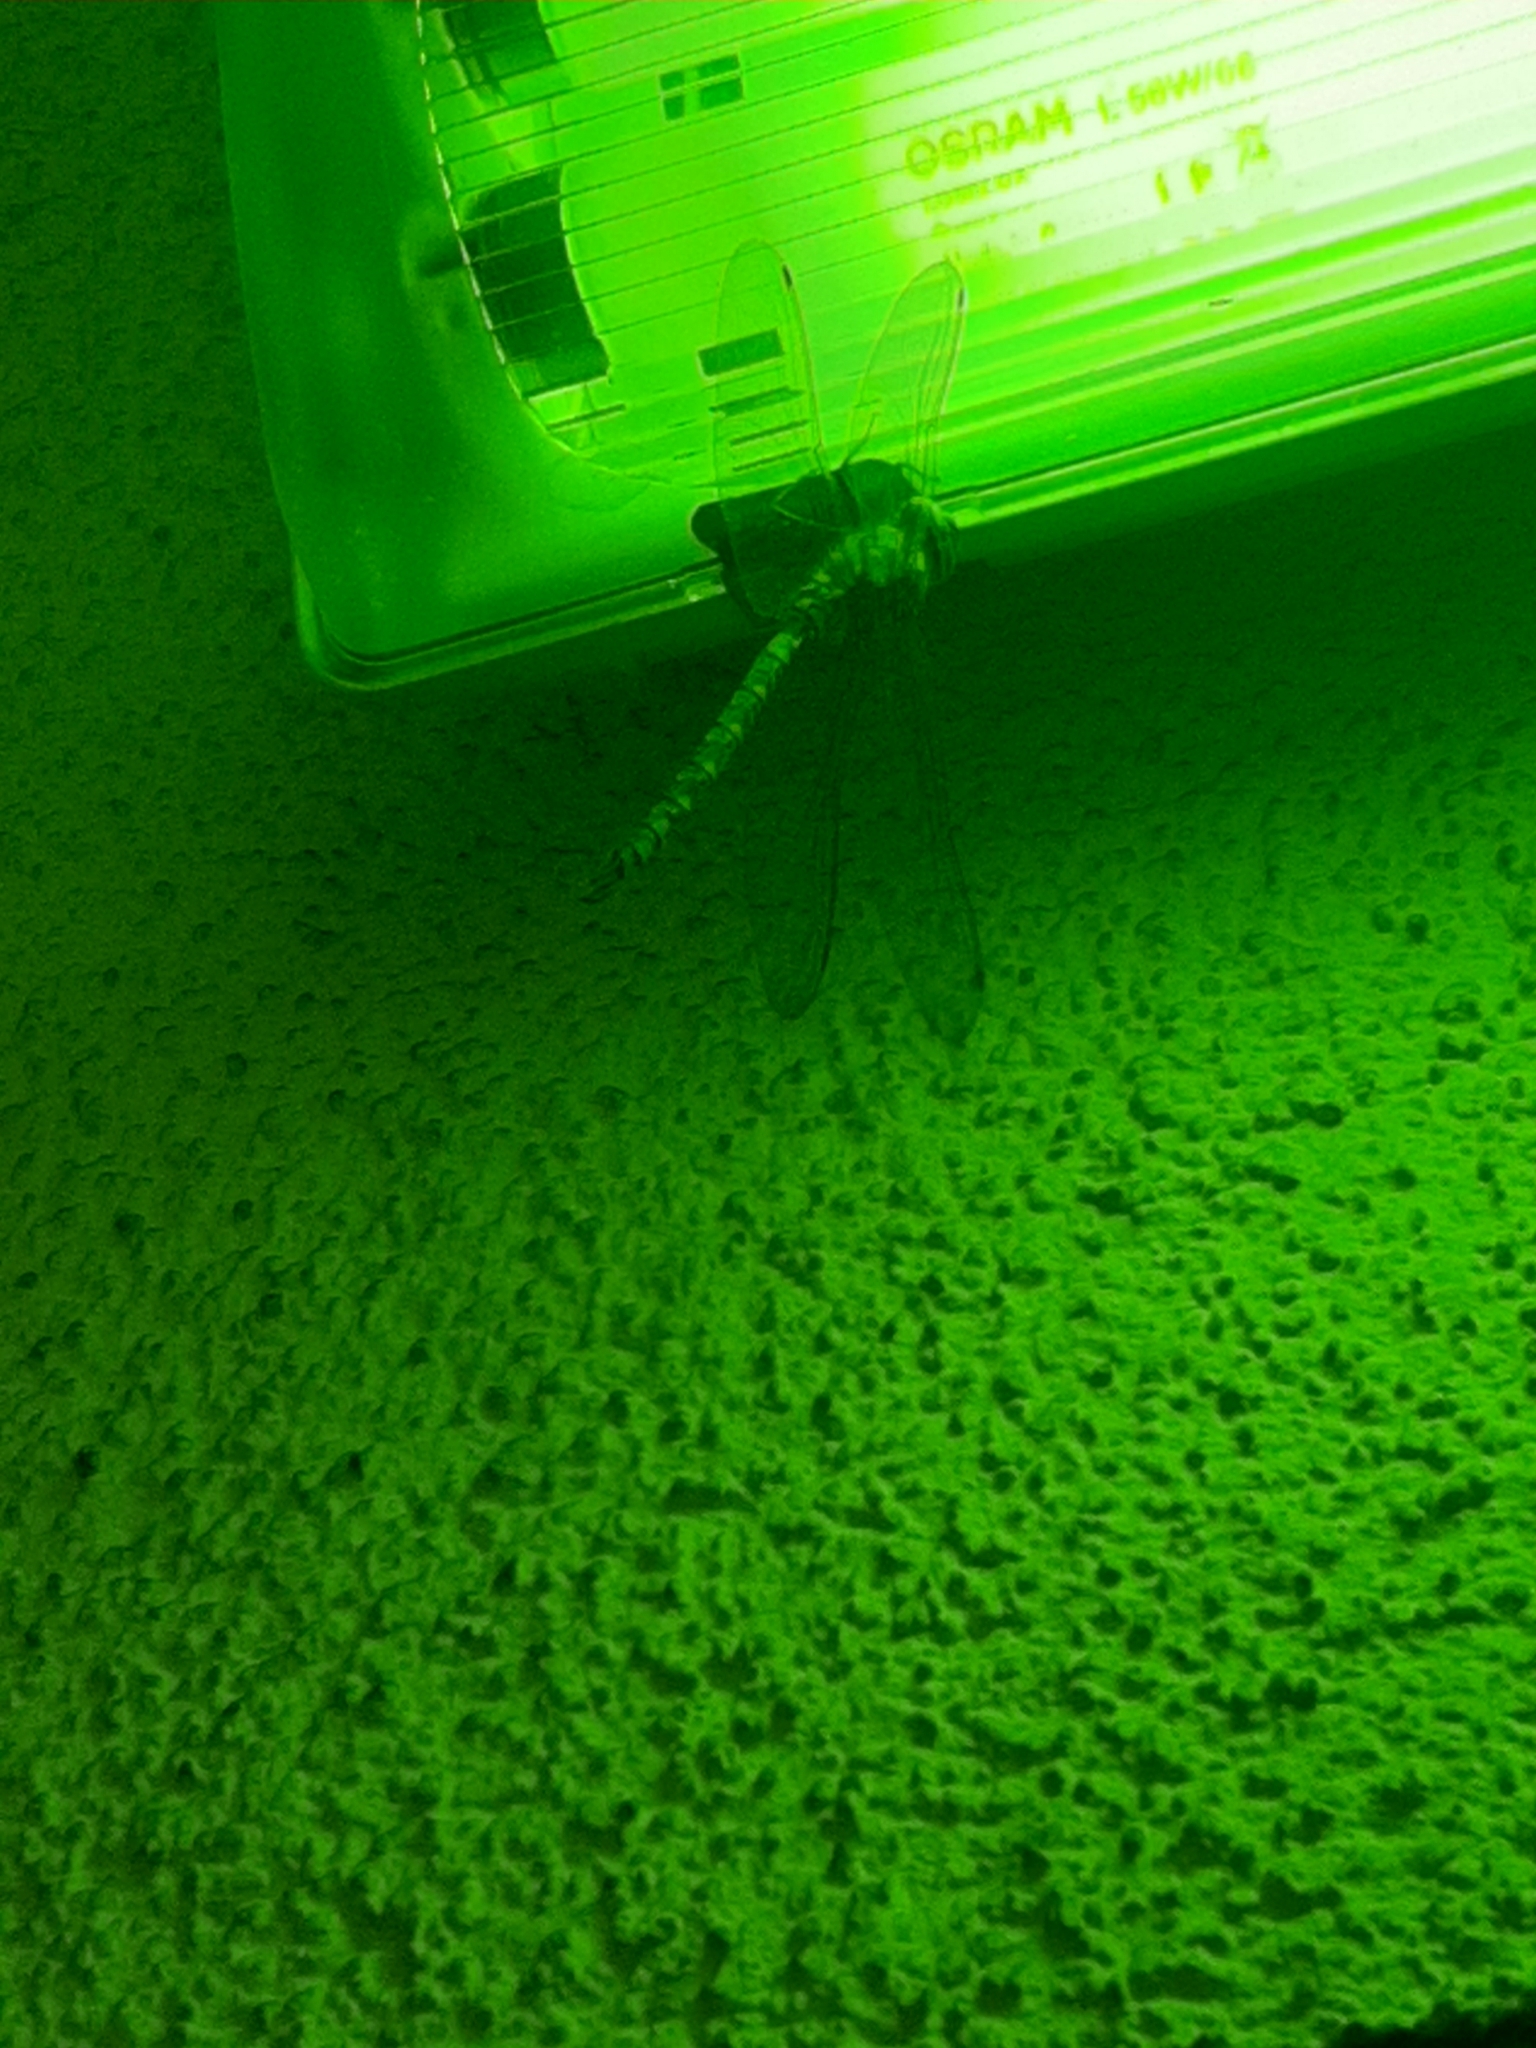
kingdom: Animalia
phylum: Arthropoda
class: Insecta
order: Odonata
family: Aeshnidae
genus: Aeshna
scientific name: Aeshna cyanea
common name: Southern hawker
